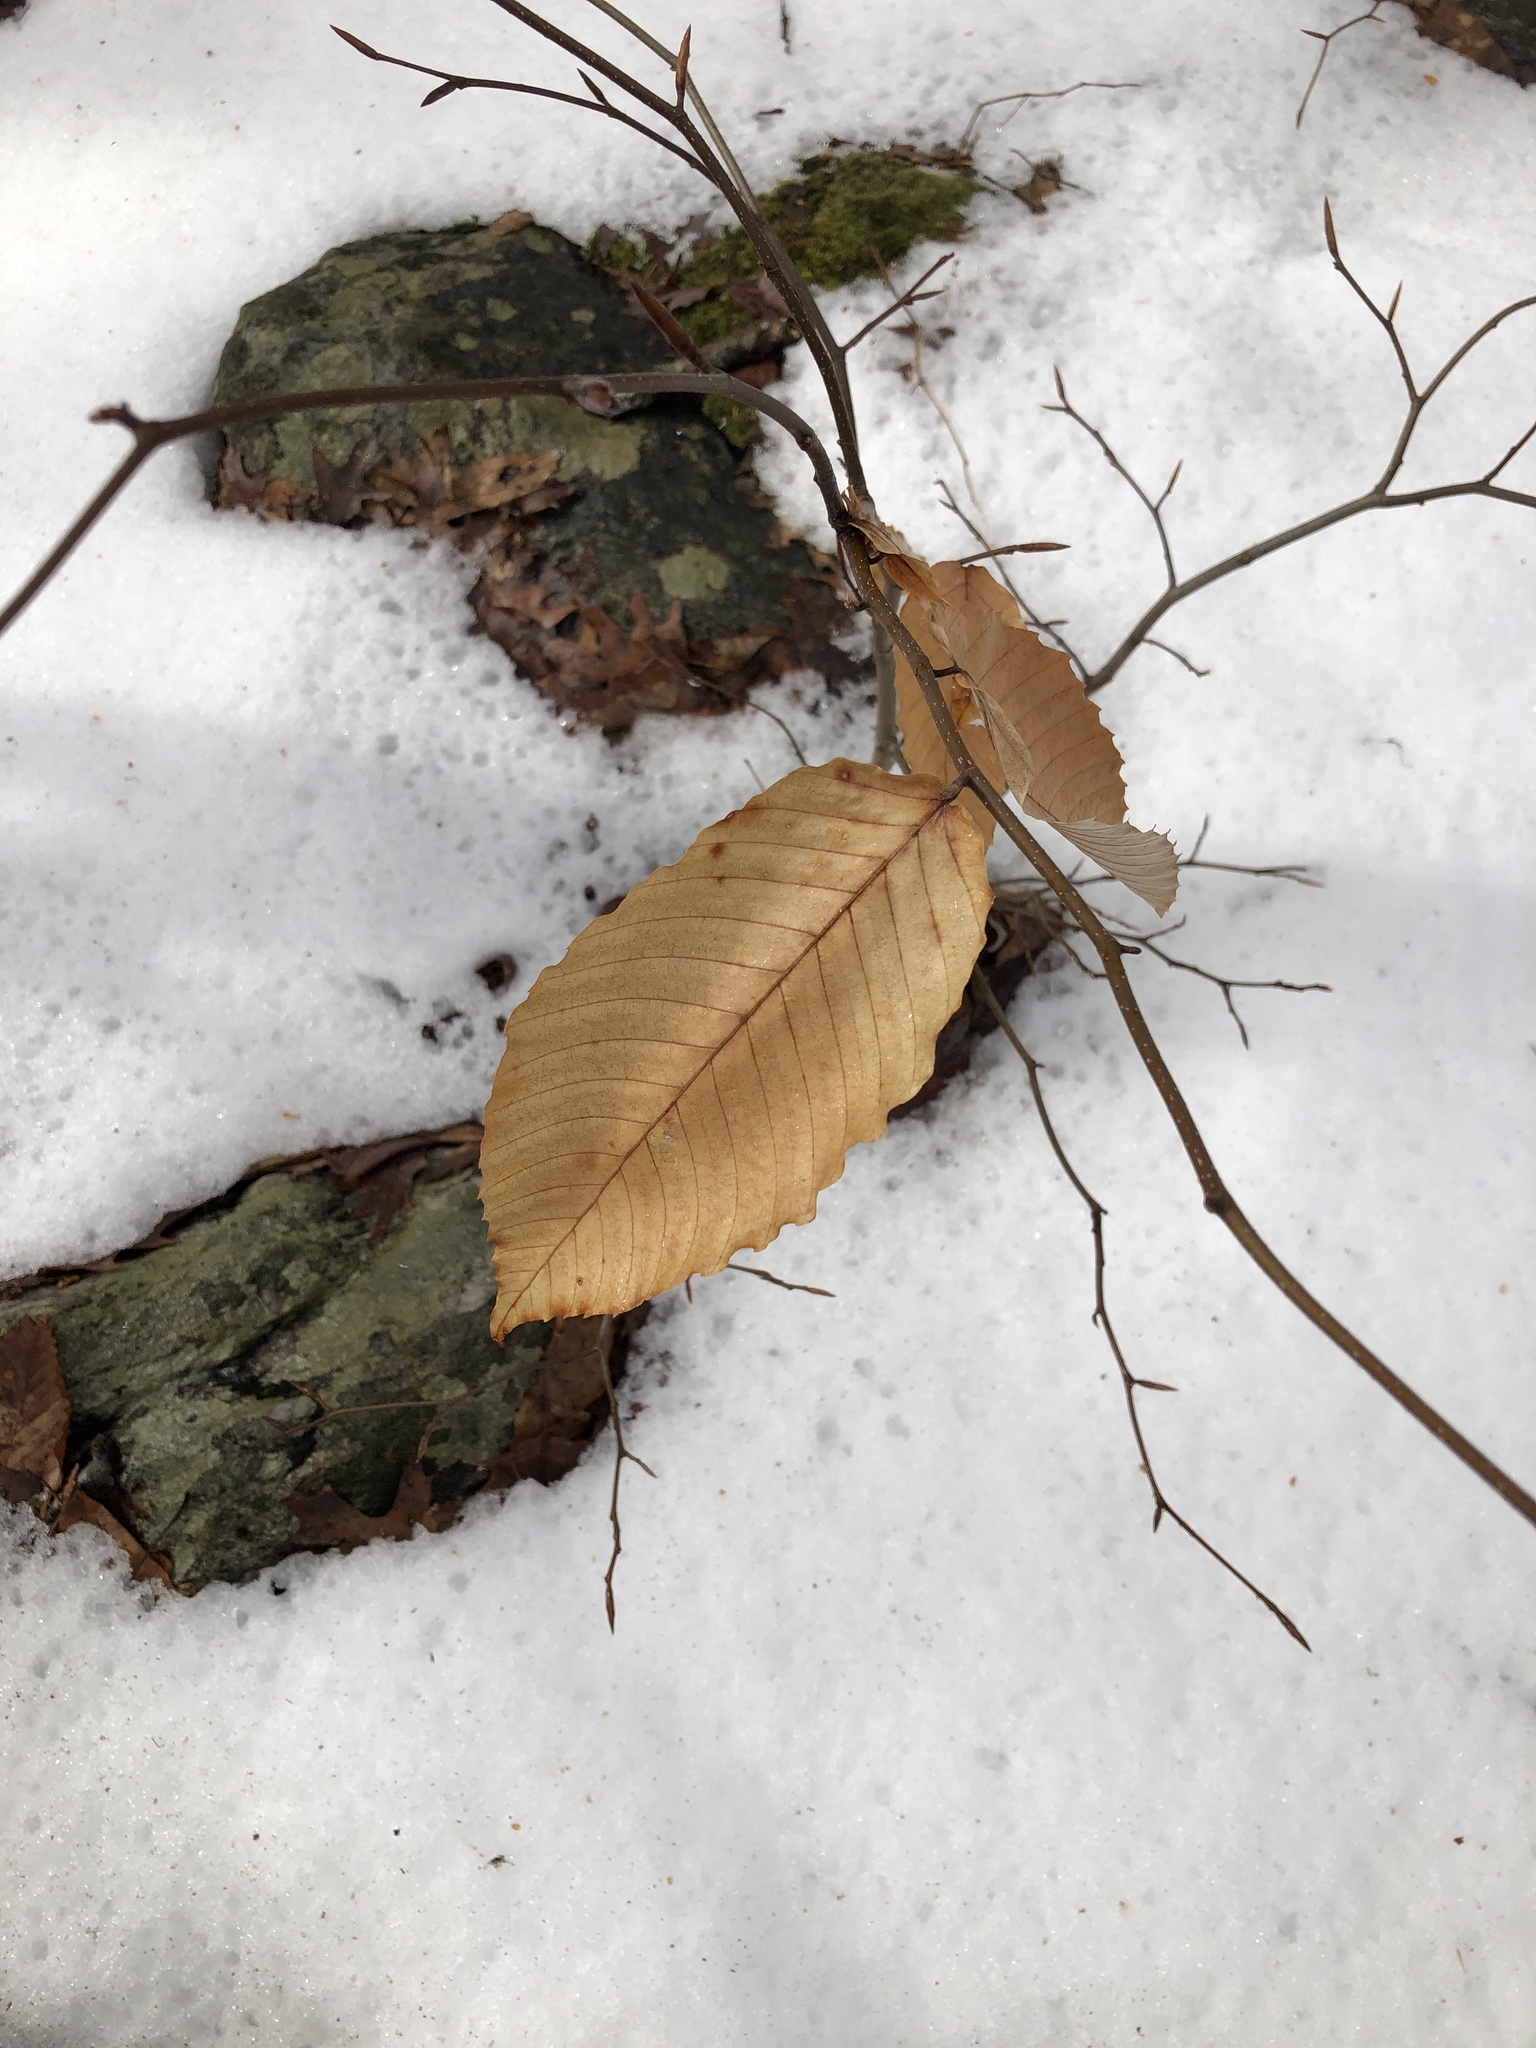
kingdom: Plantae
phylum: Tracheophyta
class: Magnoliopsida
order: Fagales
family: Fagaceae
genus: Fagus
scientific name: Fagus grandifolia
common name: American beech
